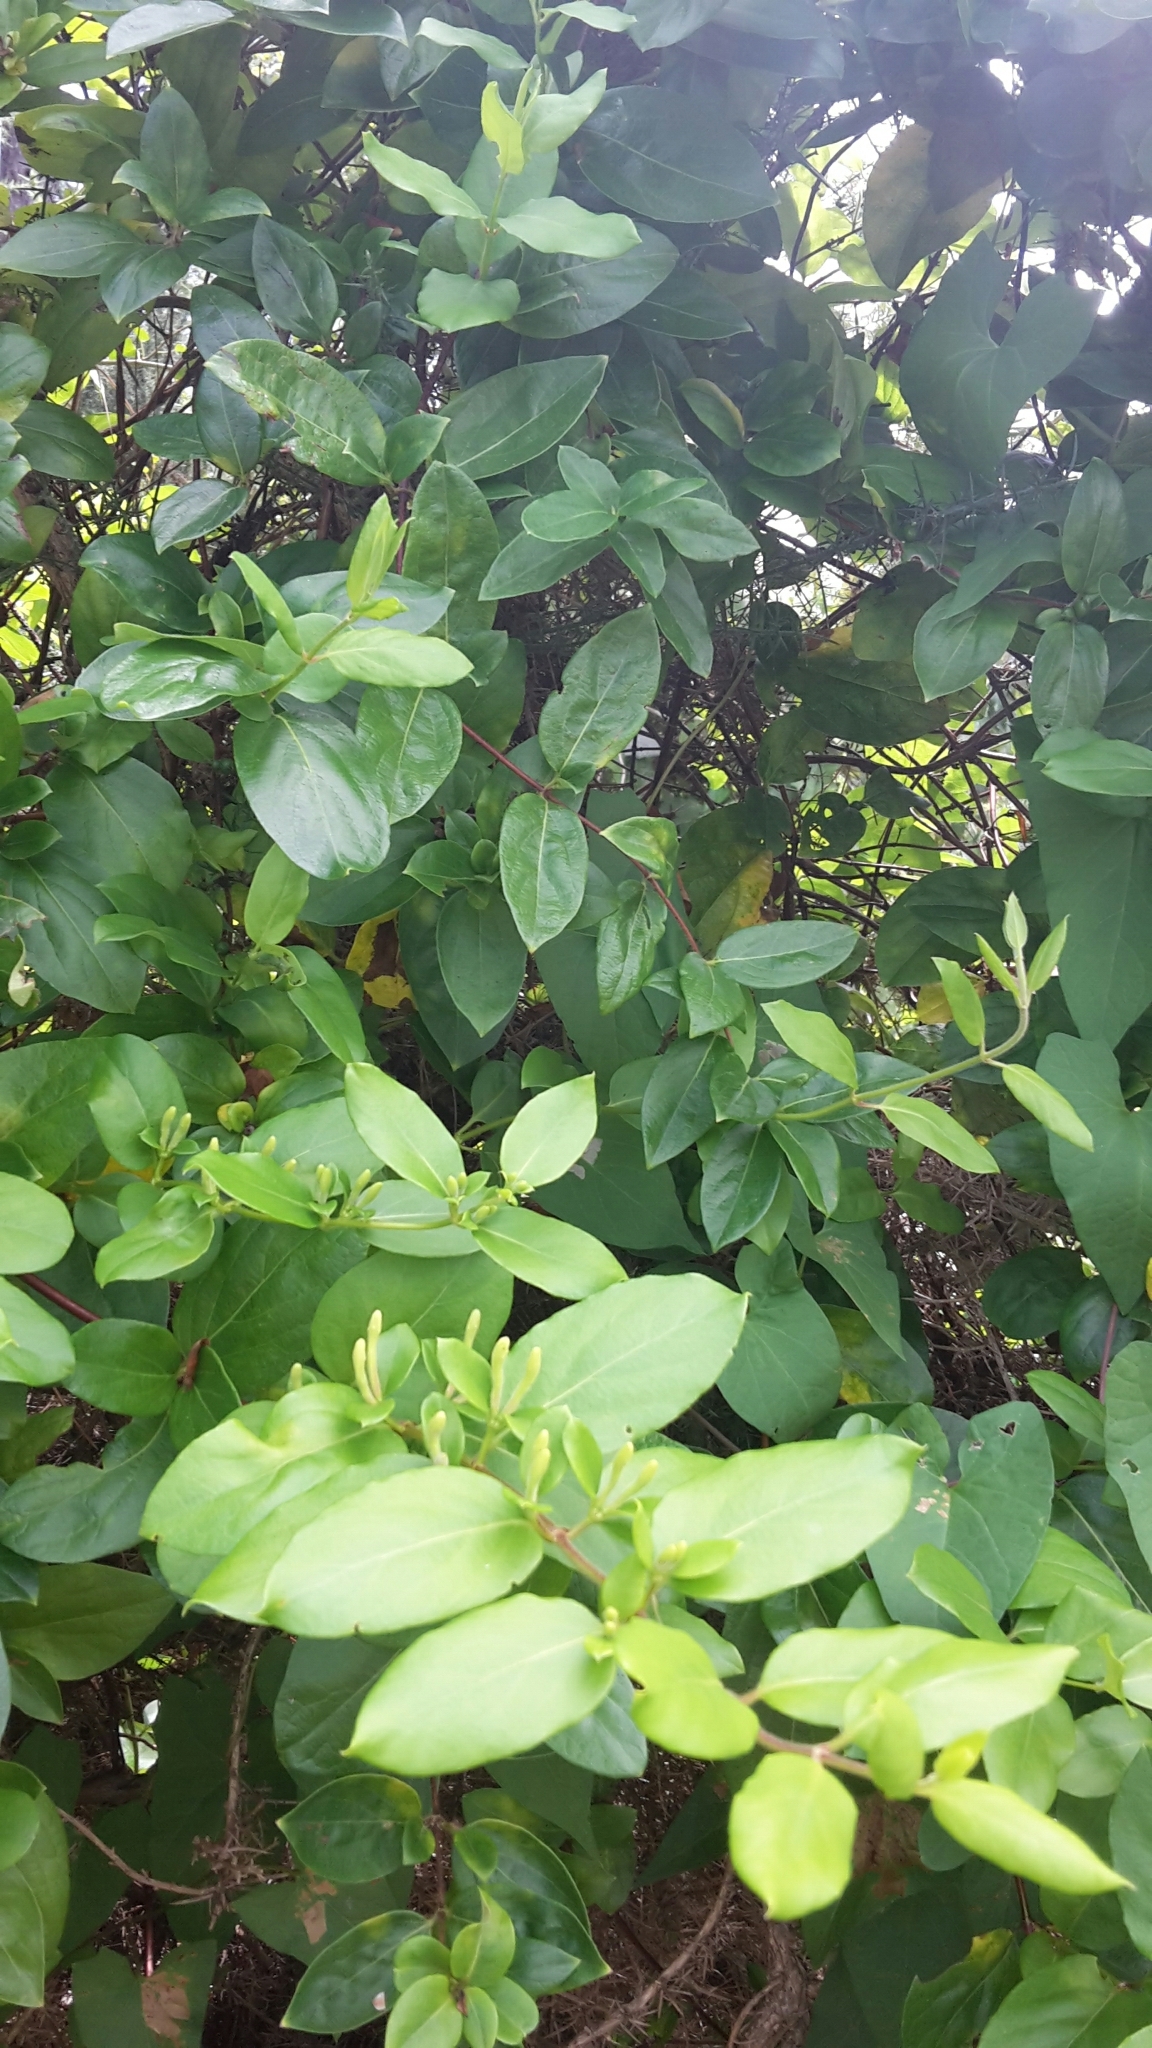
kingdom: Plantae
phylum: Tracheophyta
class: Magnoliopsida
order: Dipsacales
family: Caprifoliaceae
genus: Lonicera
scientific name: Lonicera japonica
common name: Japanese honeysuckle
